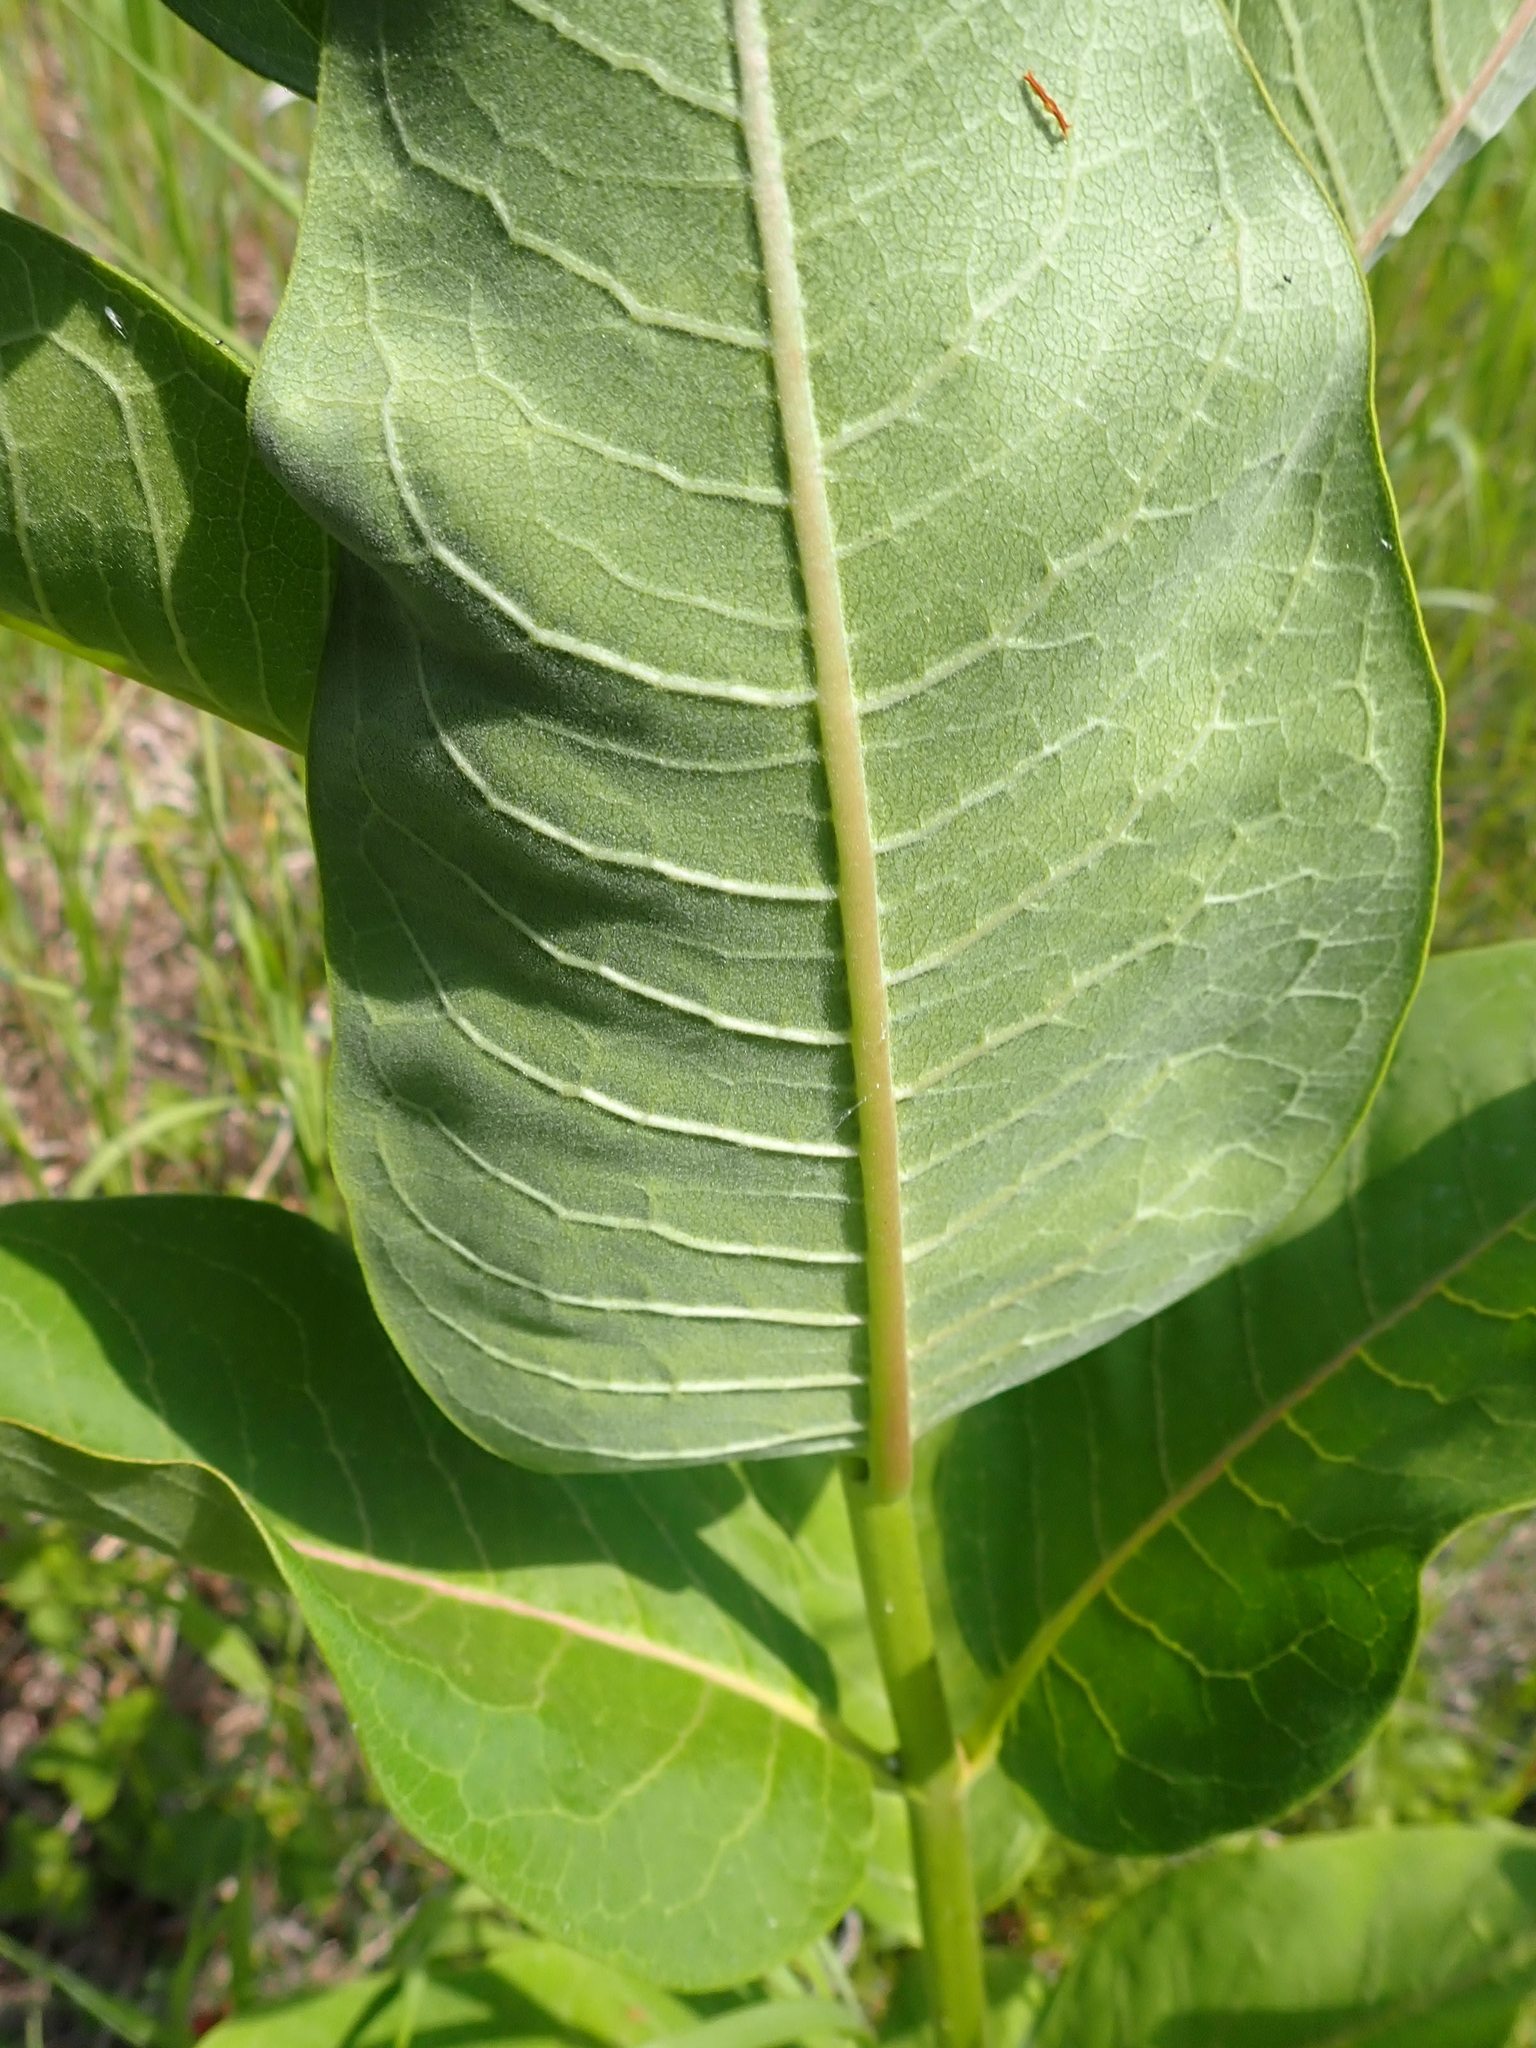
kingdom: Plantae
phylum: Tracheophyta
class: Magnoliopsida
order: Gentianales
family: Apocynaceae
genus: Asclepias
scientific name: Asclepias syriaca
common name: Common milkweed
